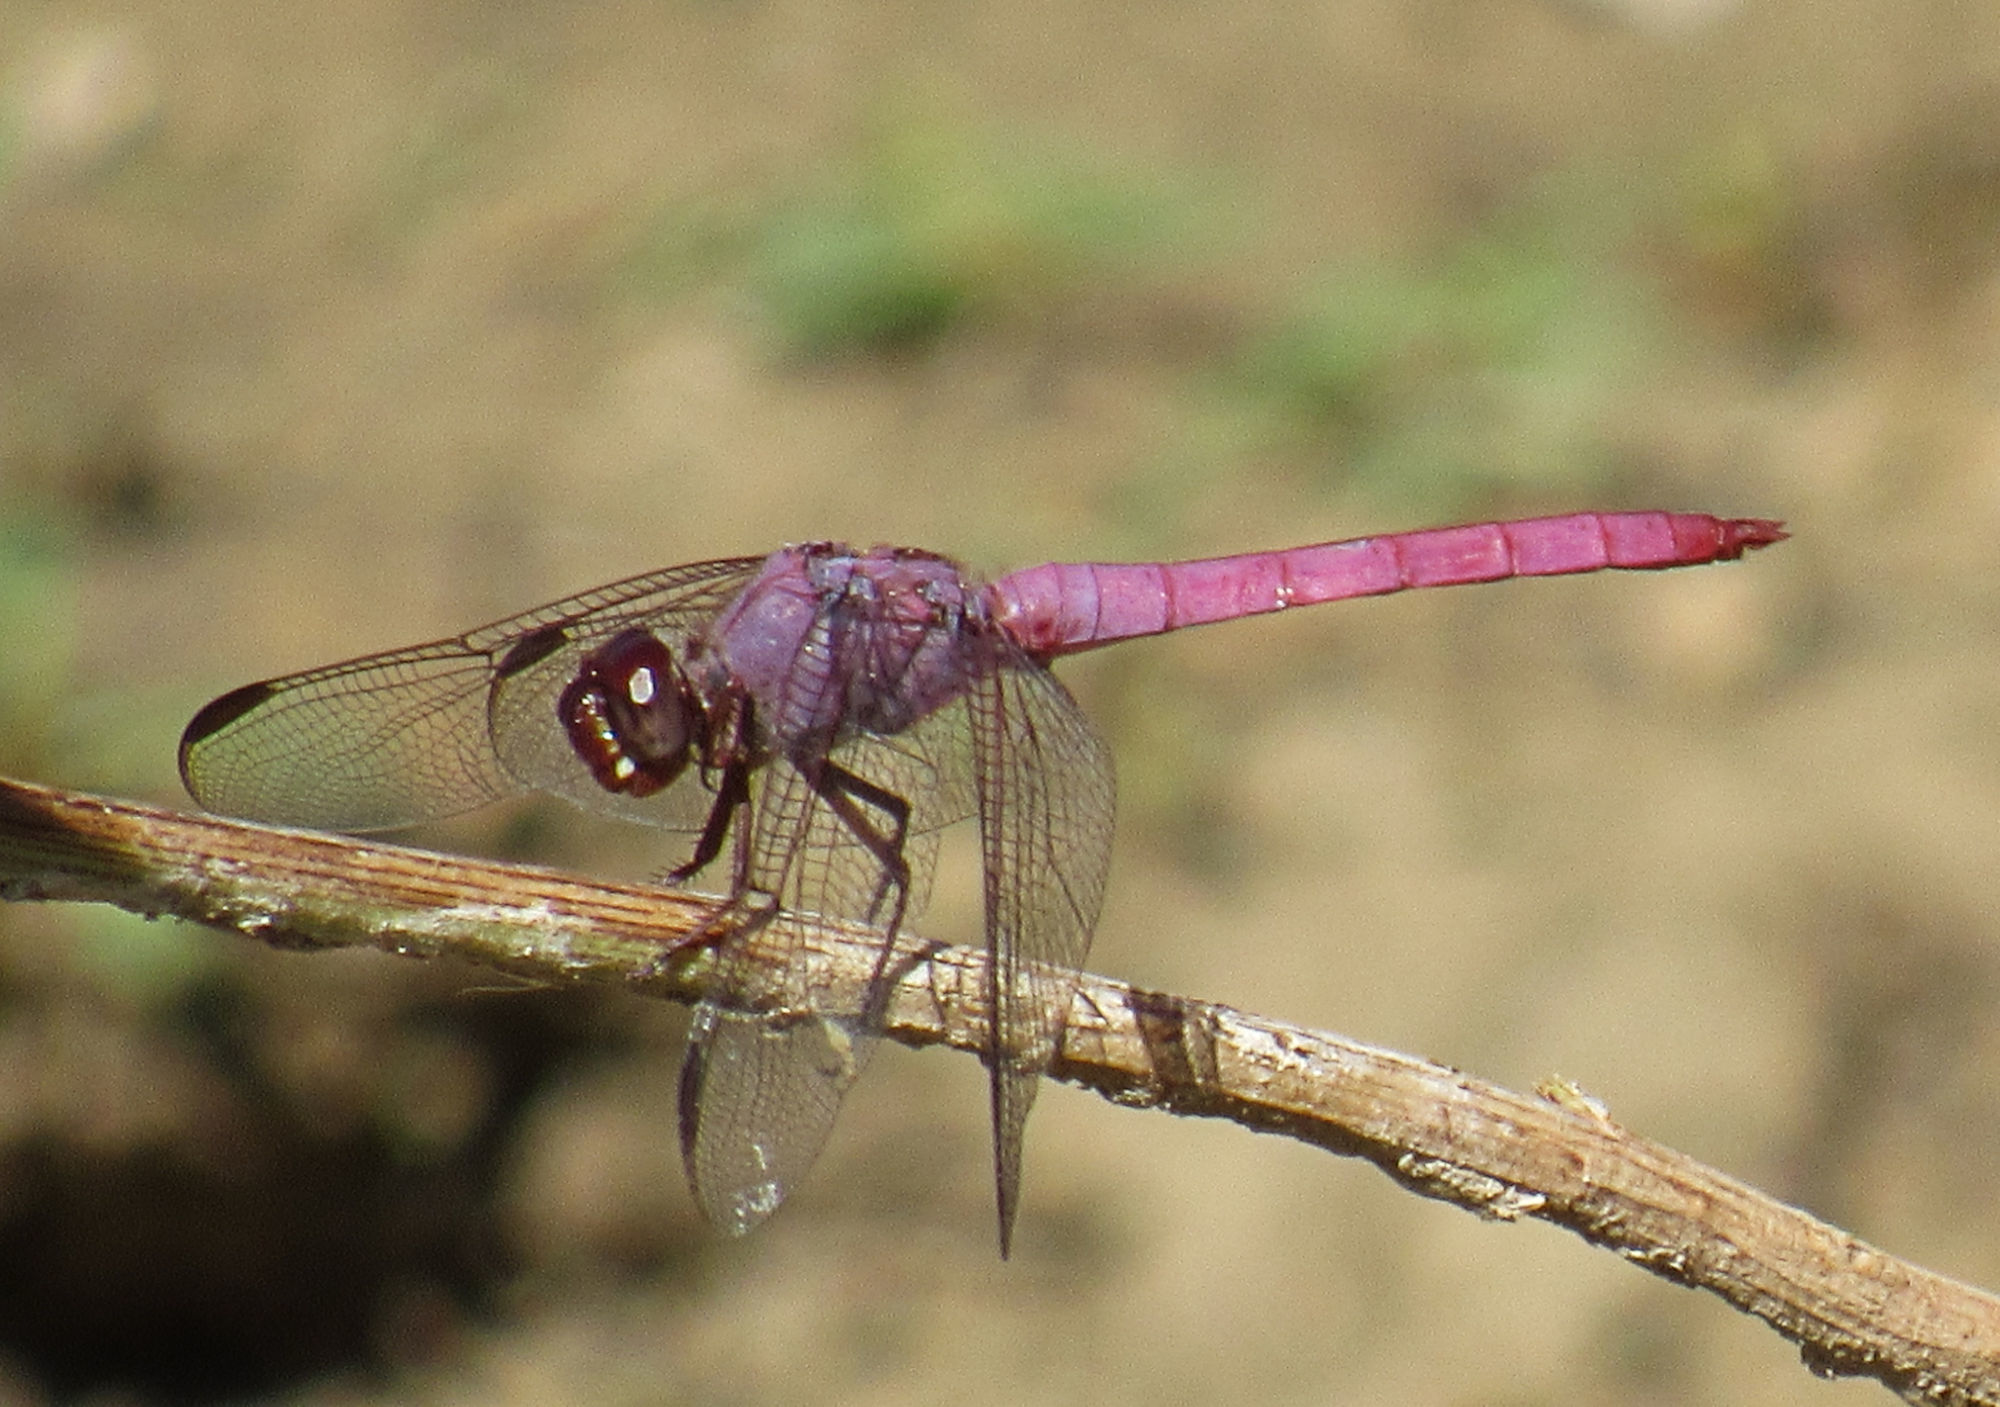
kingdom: Animalia
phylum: Arthropoda
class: Insecta
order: Odonata
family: Libellulidae
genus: Orthemis
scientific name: Orthemis ferruginea
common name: Roseate skimmer
